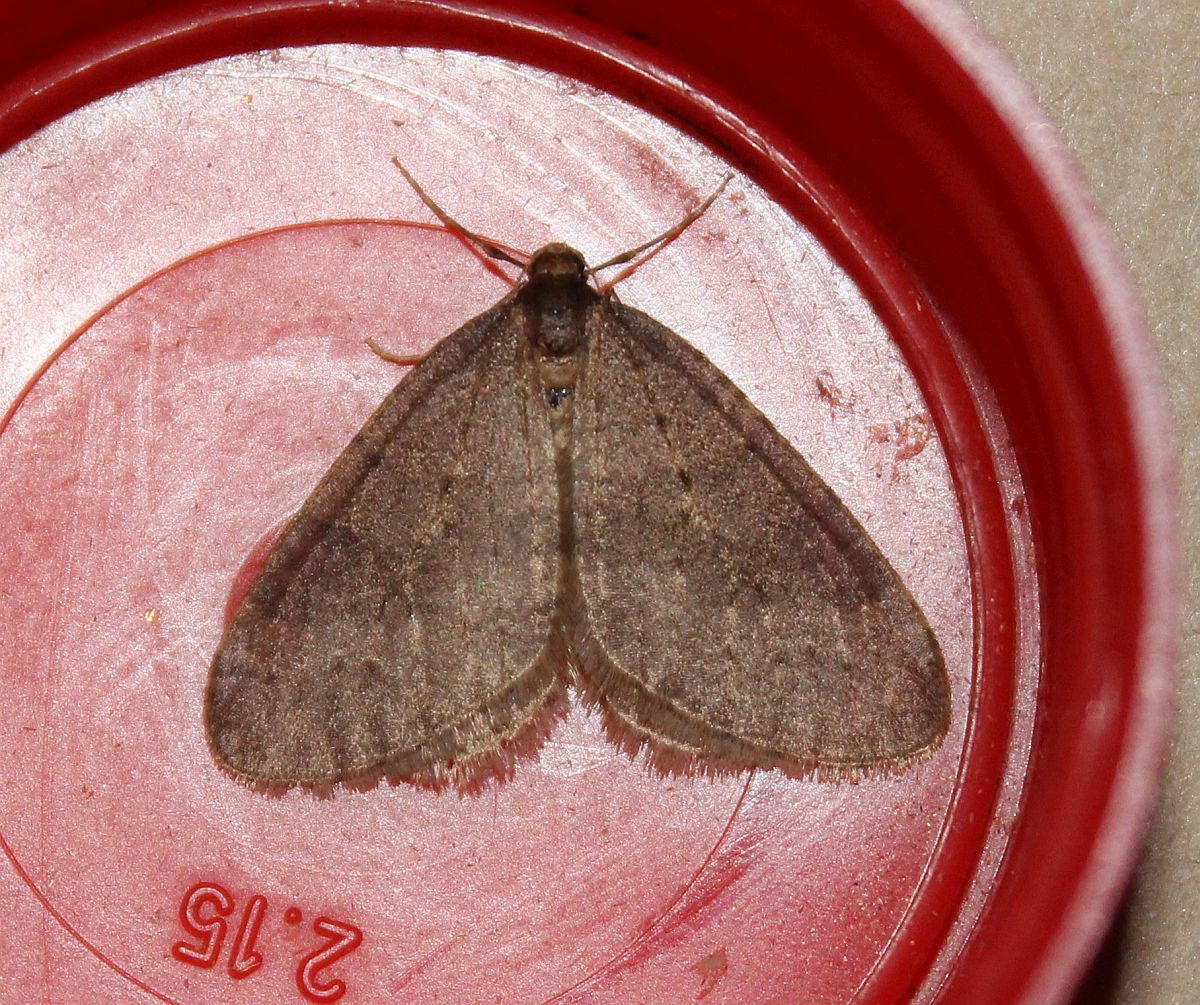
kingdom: Animalia
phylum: Arthropoda
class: Insecta
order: Lepidoptera
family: Geometridae
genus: Operophtera
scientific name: Operophtera brumata
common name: Winter moth
